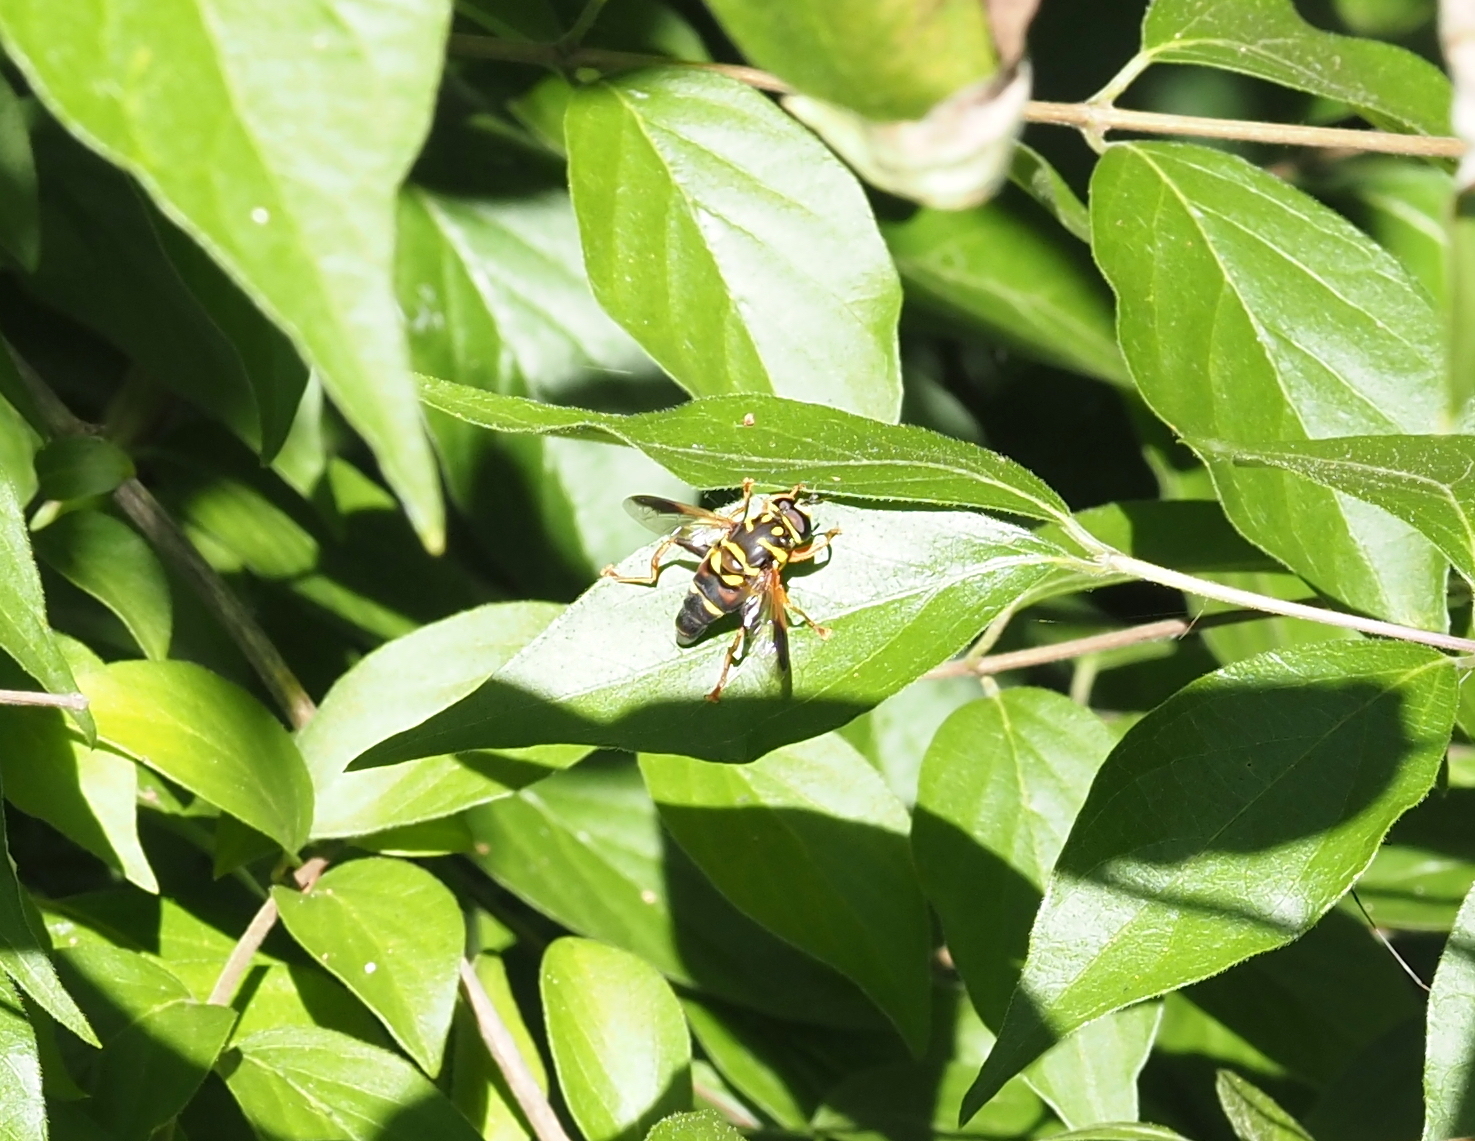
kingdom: Animalia
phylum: Arthropoda
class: Insecta
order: Diptera
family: Syrphidae
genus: Meromacrus
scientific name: Meromacrus acutus
